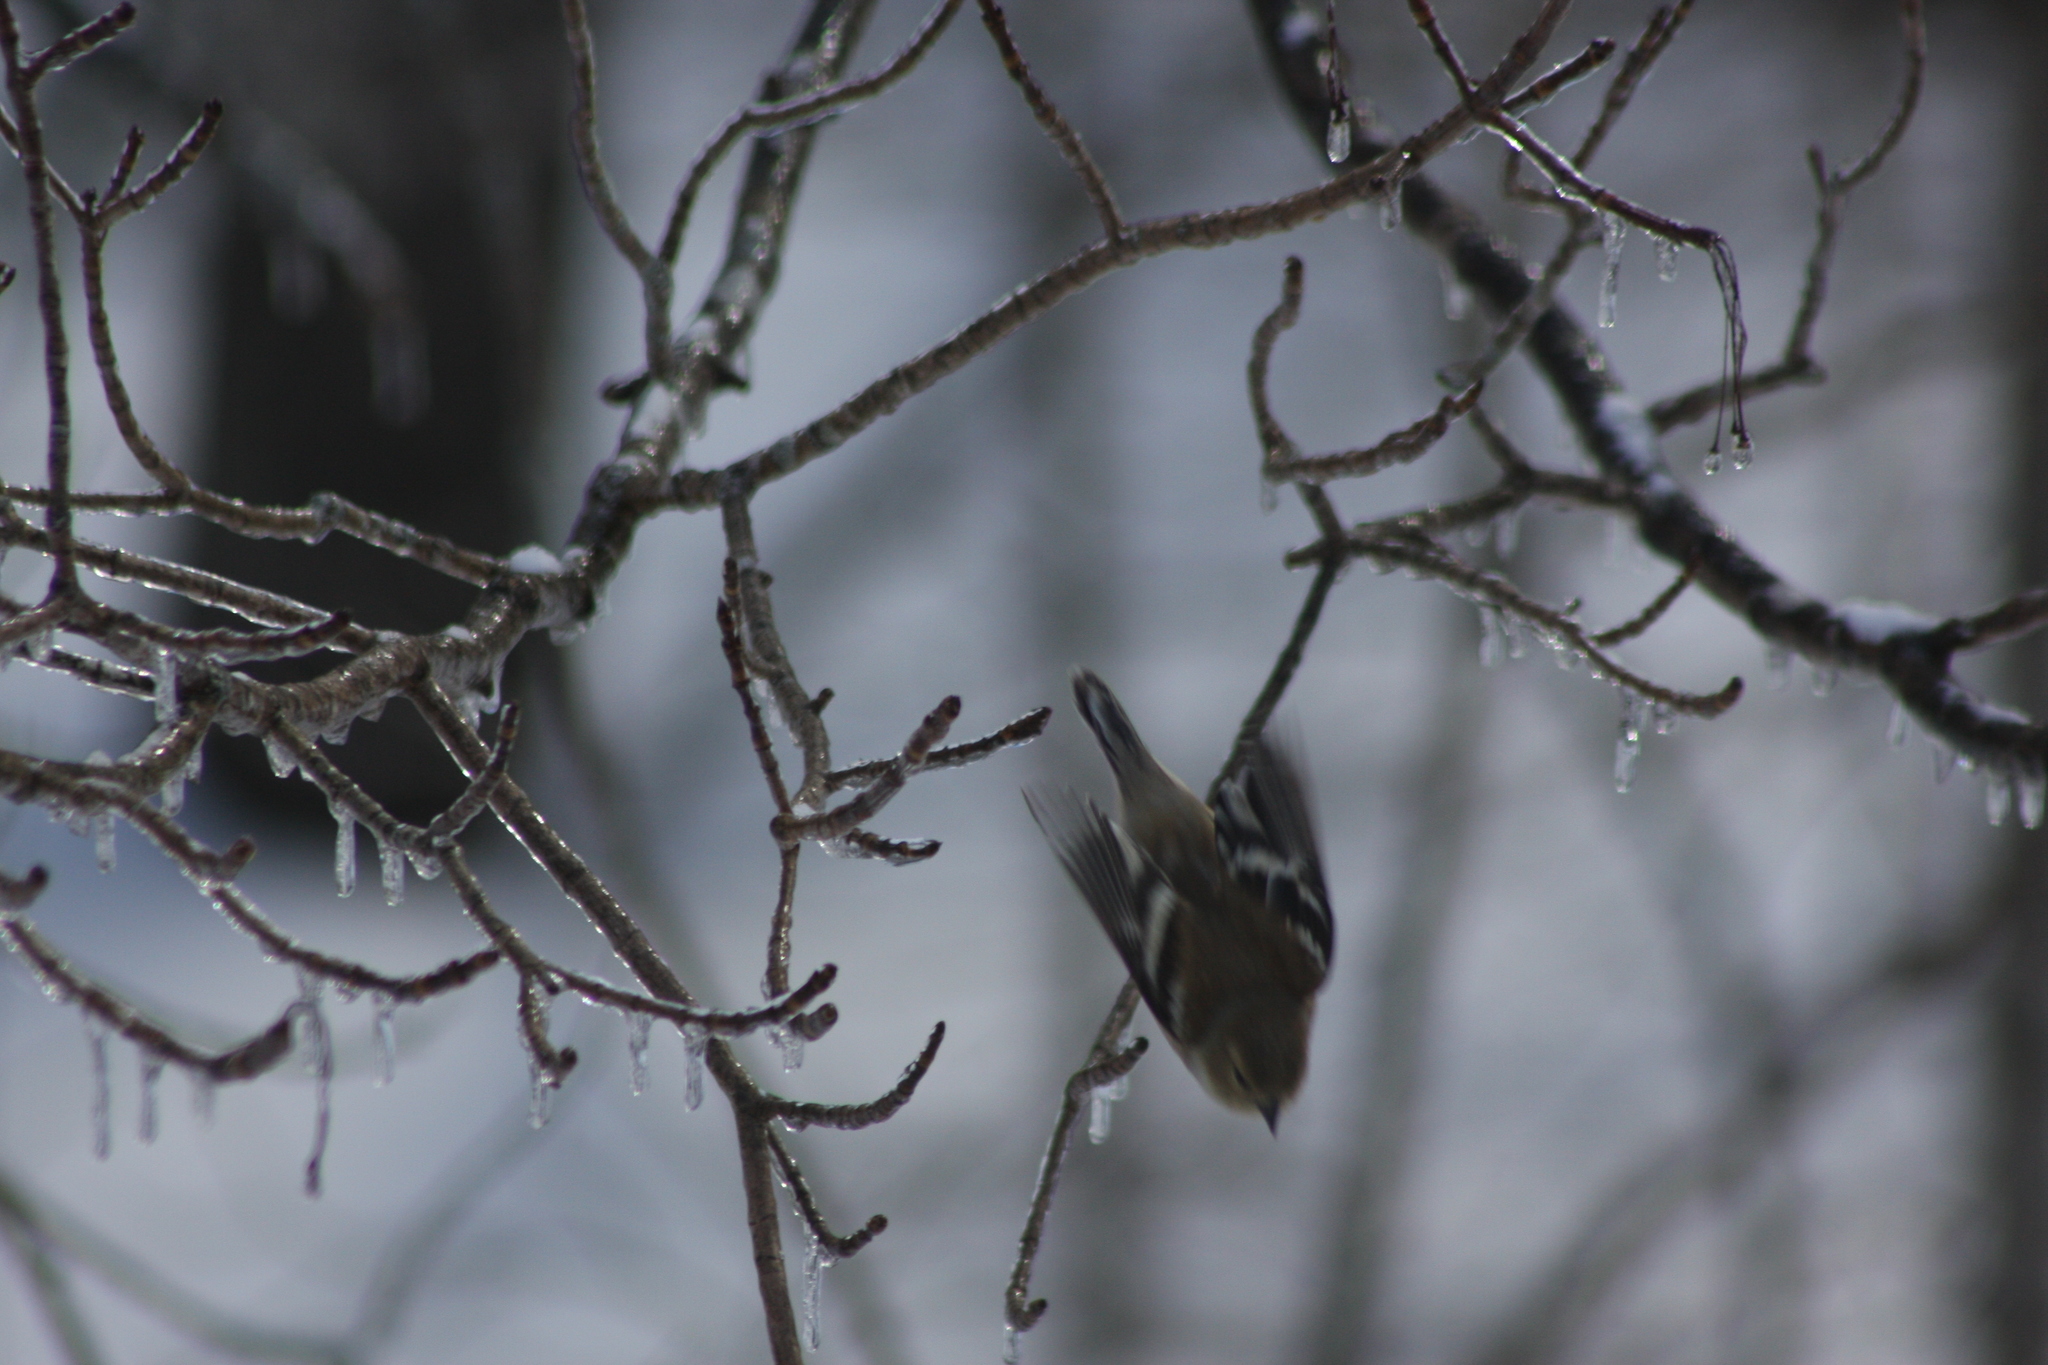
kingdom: Animalia
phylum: Chordata
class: Aves
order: Passeriformes
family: Fringillidae
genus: Spinus
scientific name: Spinus tristis
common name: American goldfinch
